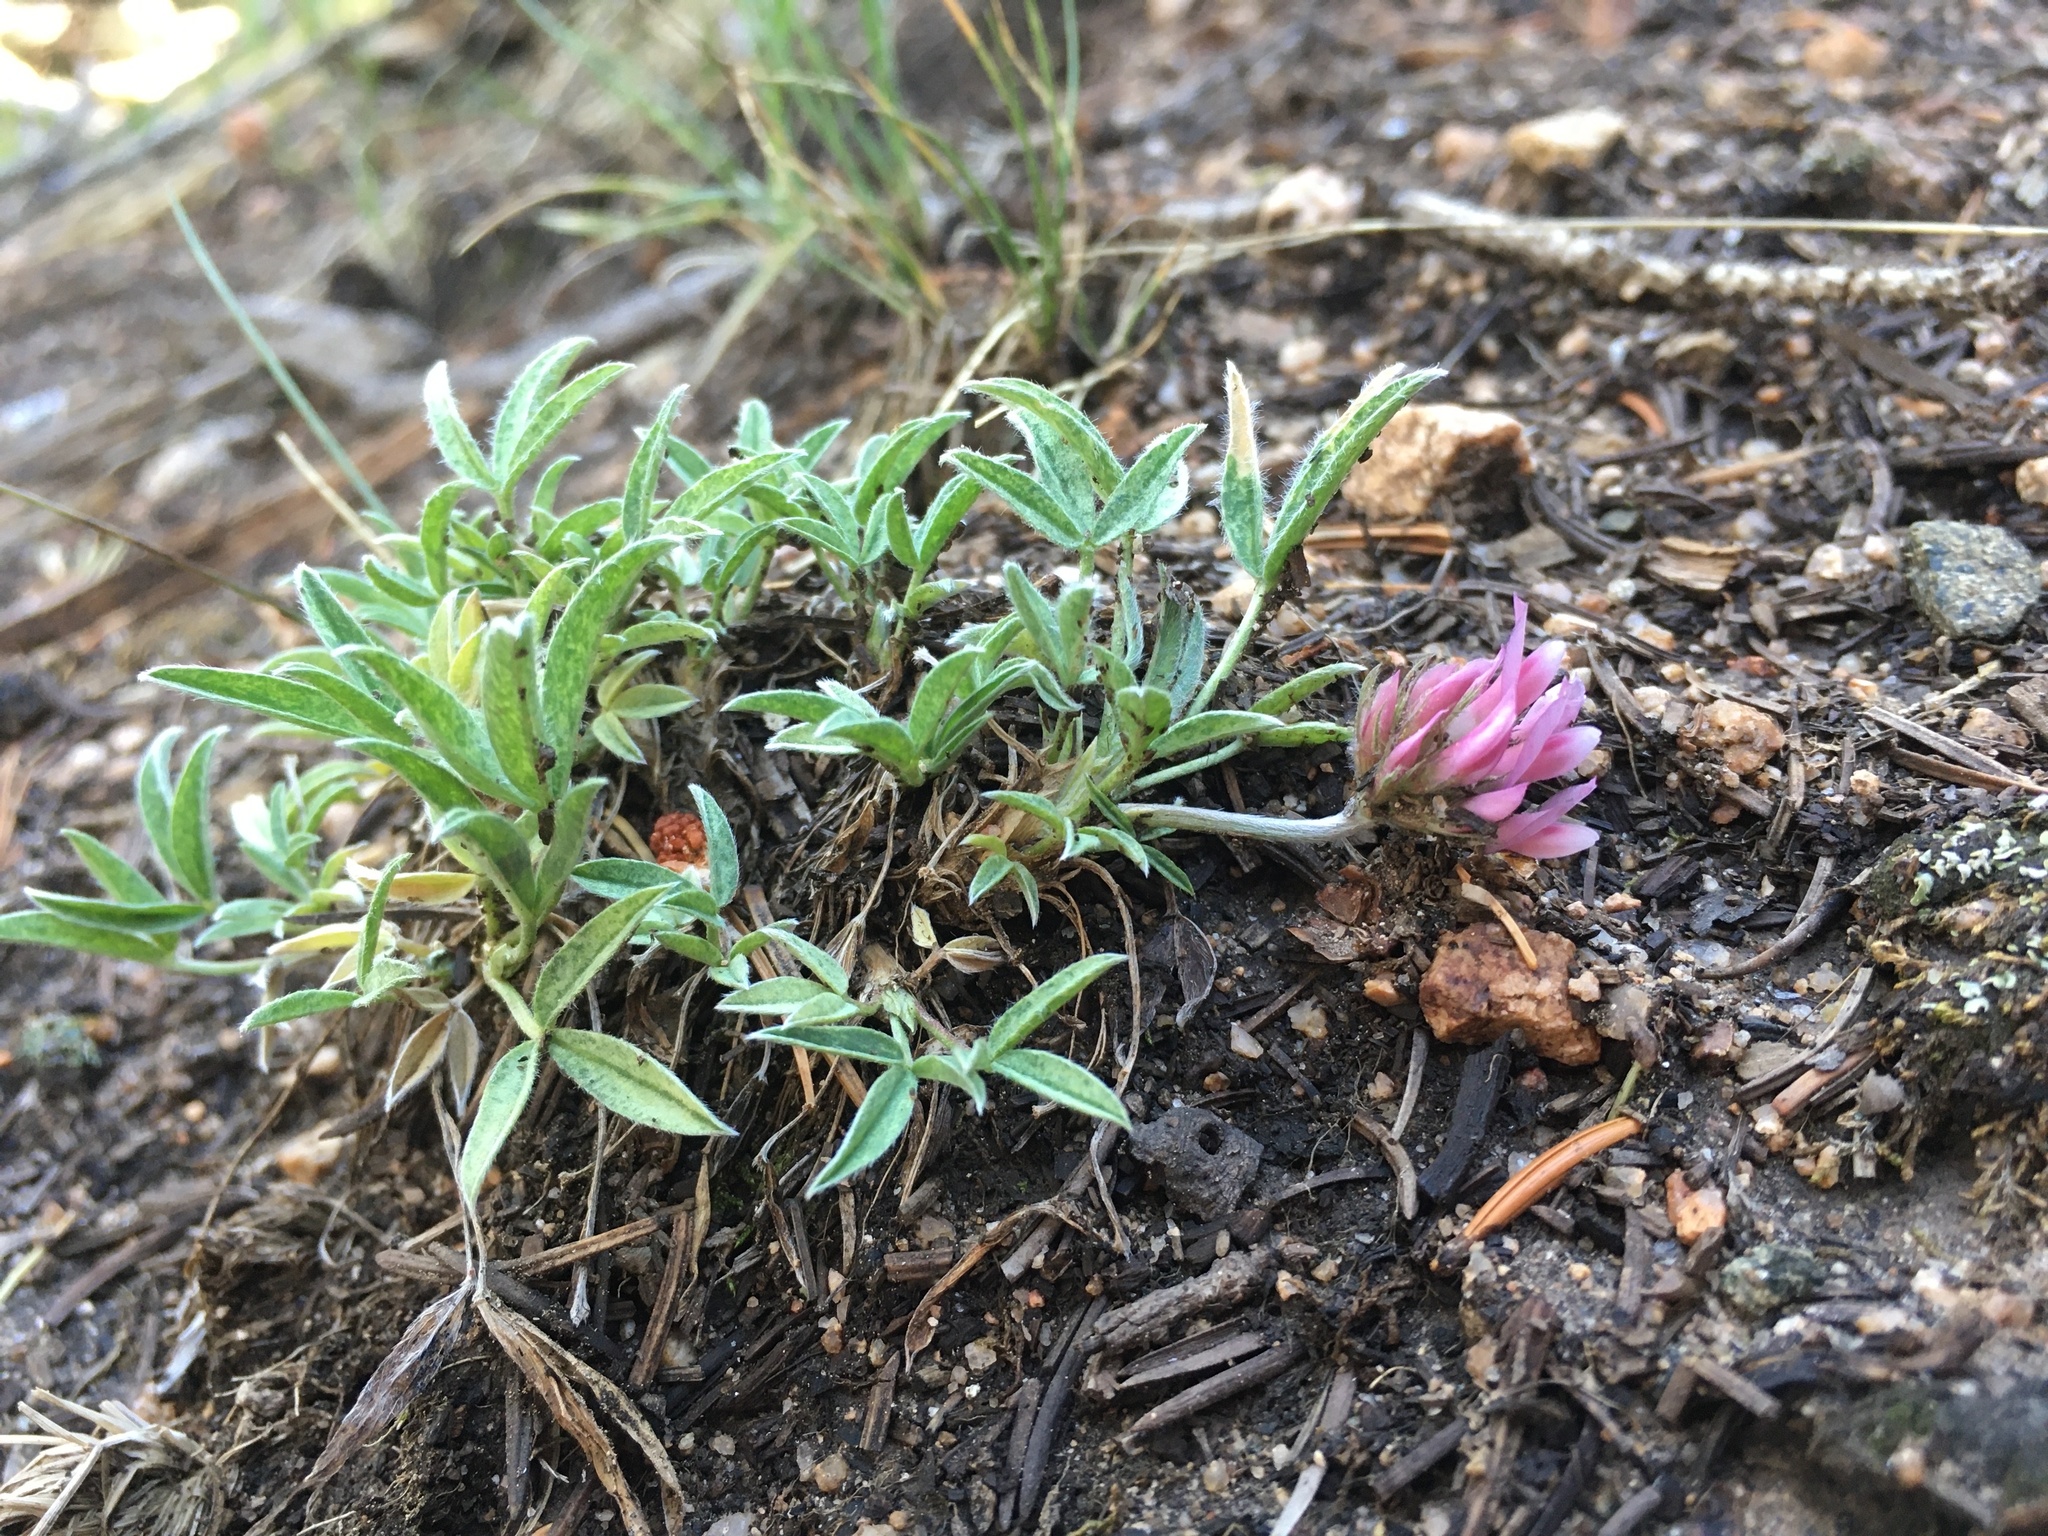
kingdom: Plantae
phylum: Tracheophyta
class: Magnoliopsida
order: Fabales
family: Fabaceae
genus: Trifolium
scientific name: Trifolium attenuatum
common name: Rocky mountain clover
